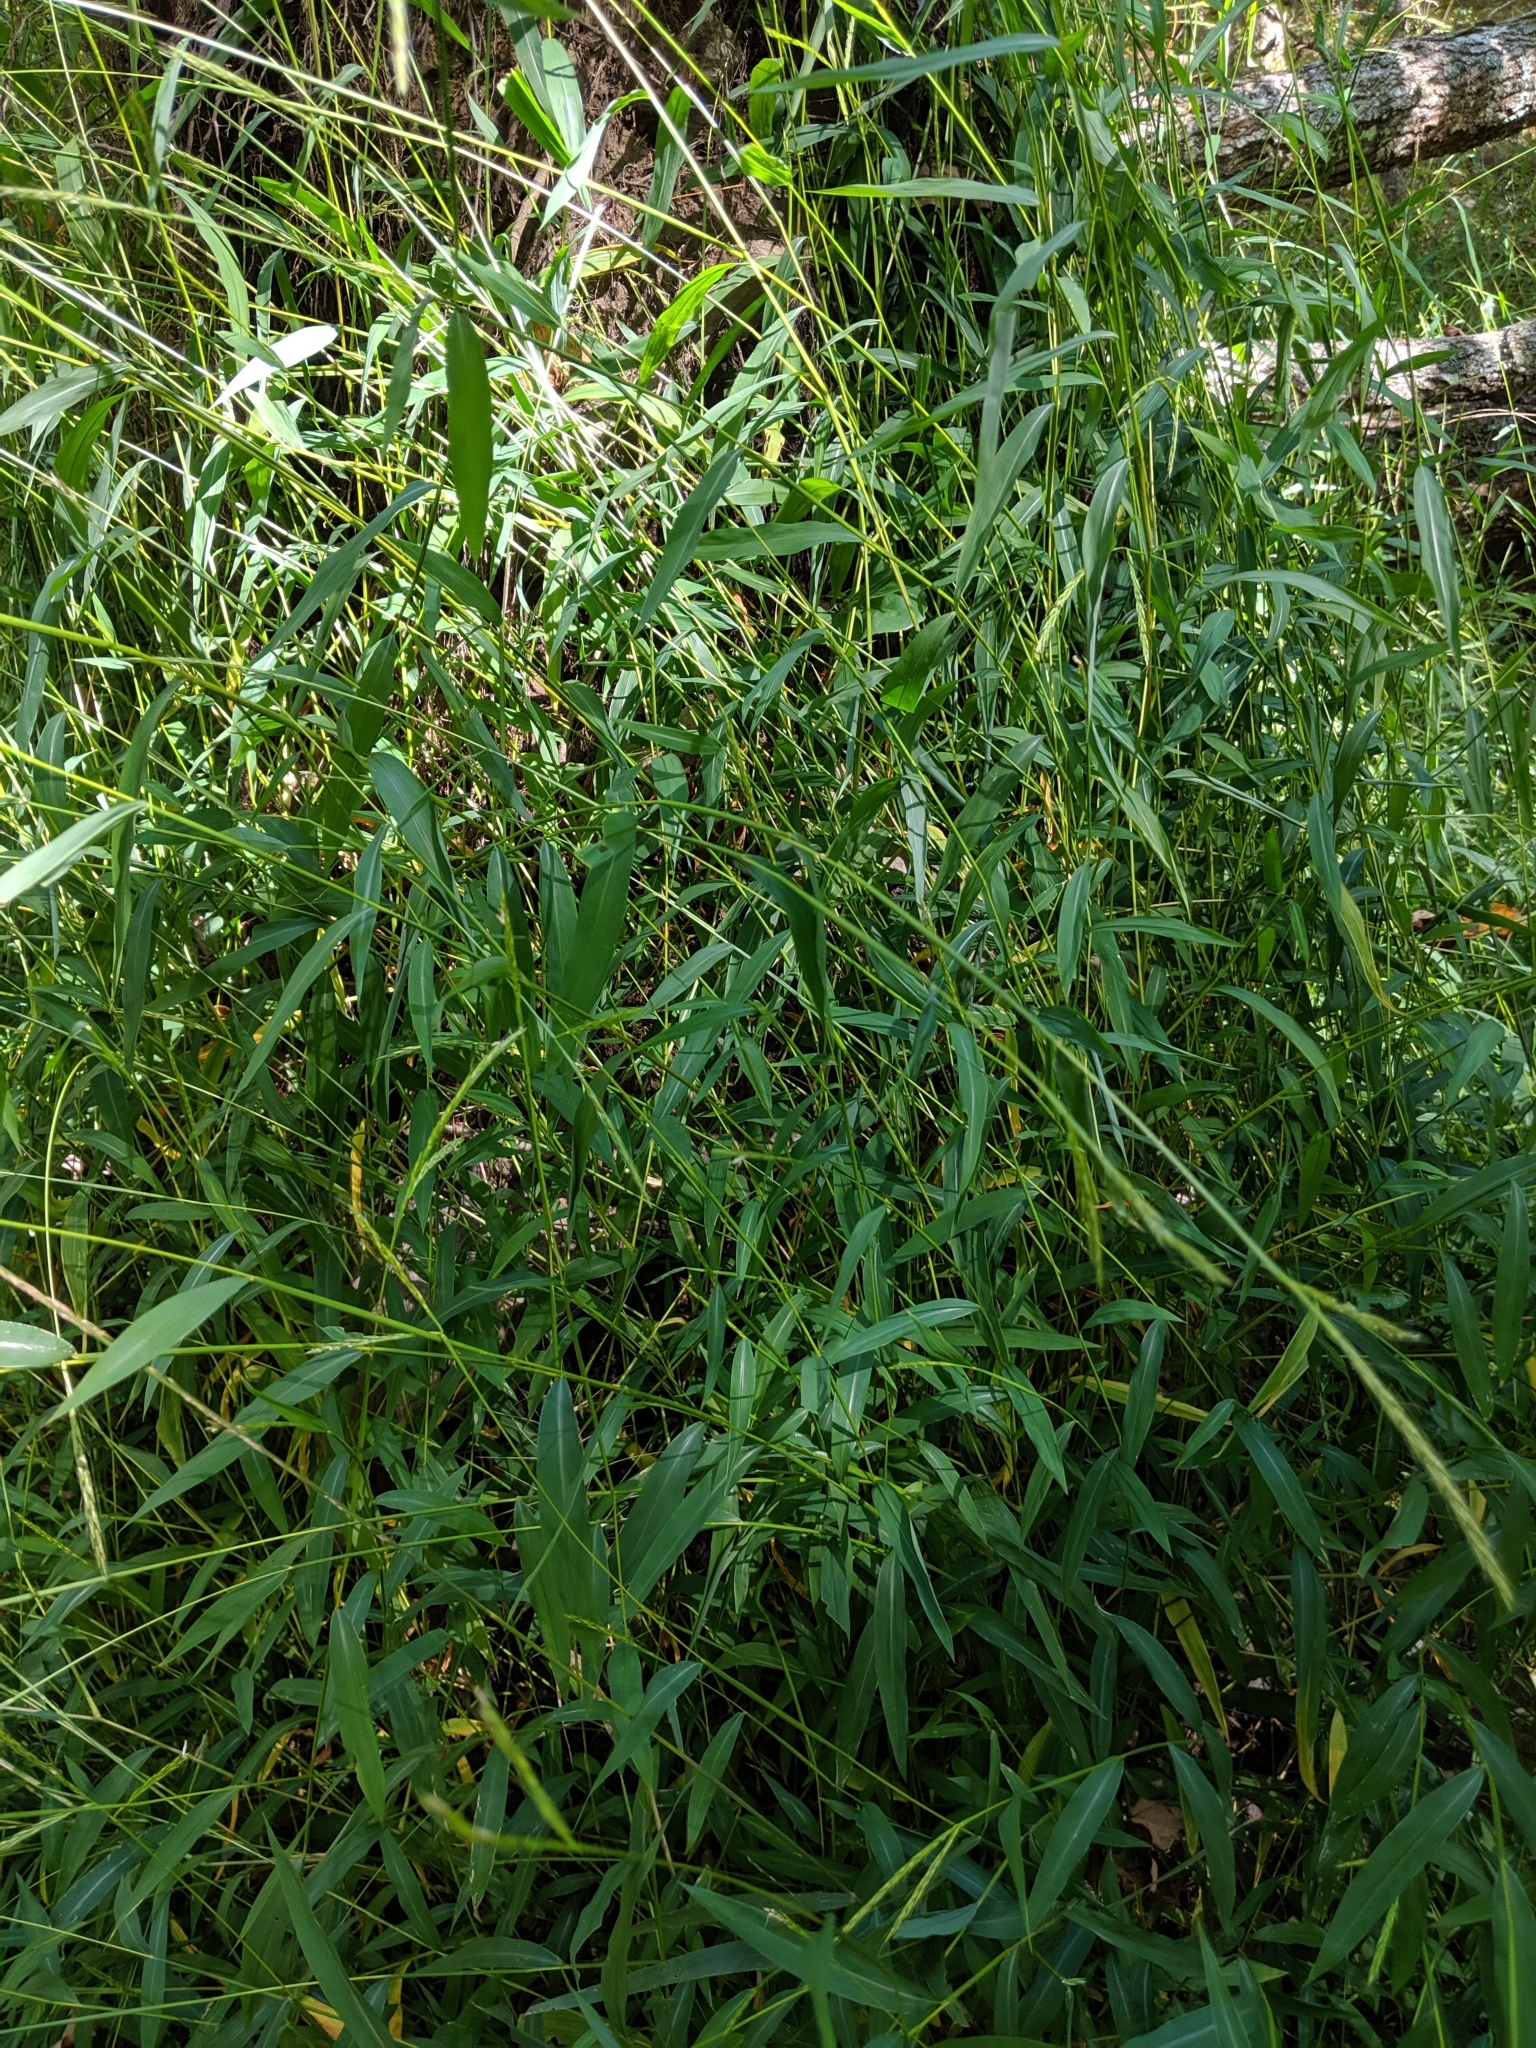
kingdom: Plantae
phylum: Tracheophyta
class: Liliopsida
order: Poales
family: Poaceae
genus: Microstegium
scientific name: Microstegium vimineum
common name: Japanese stiltgrass
